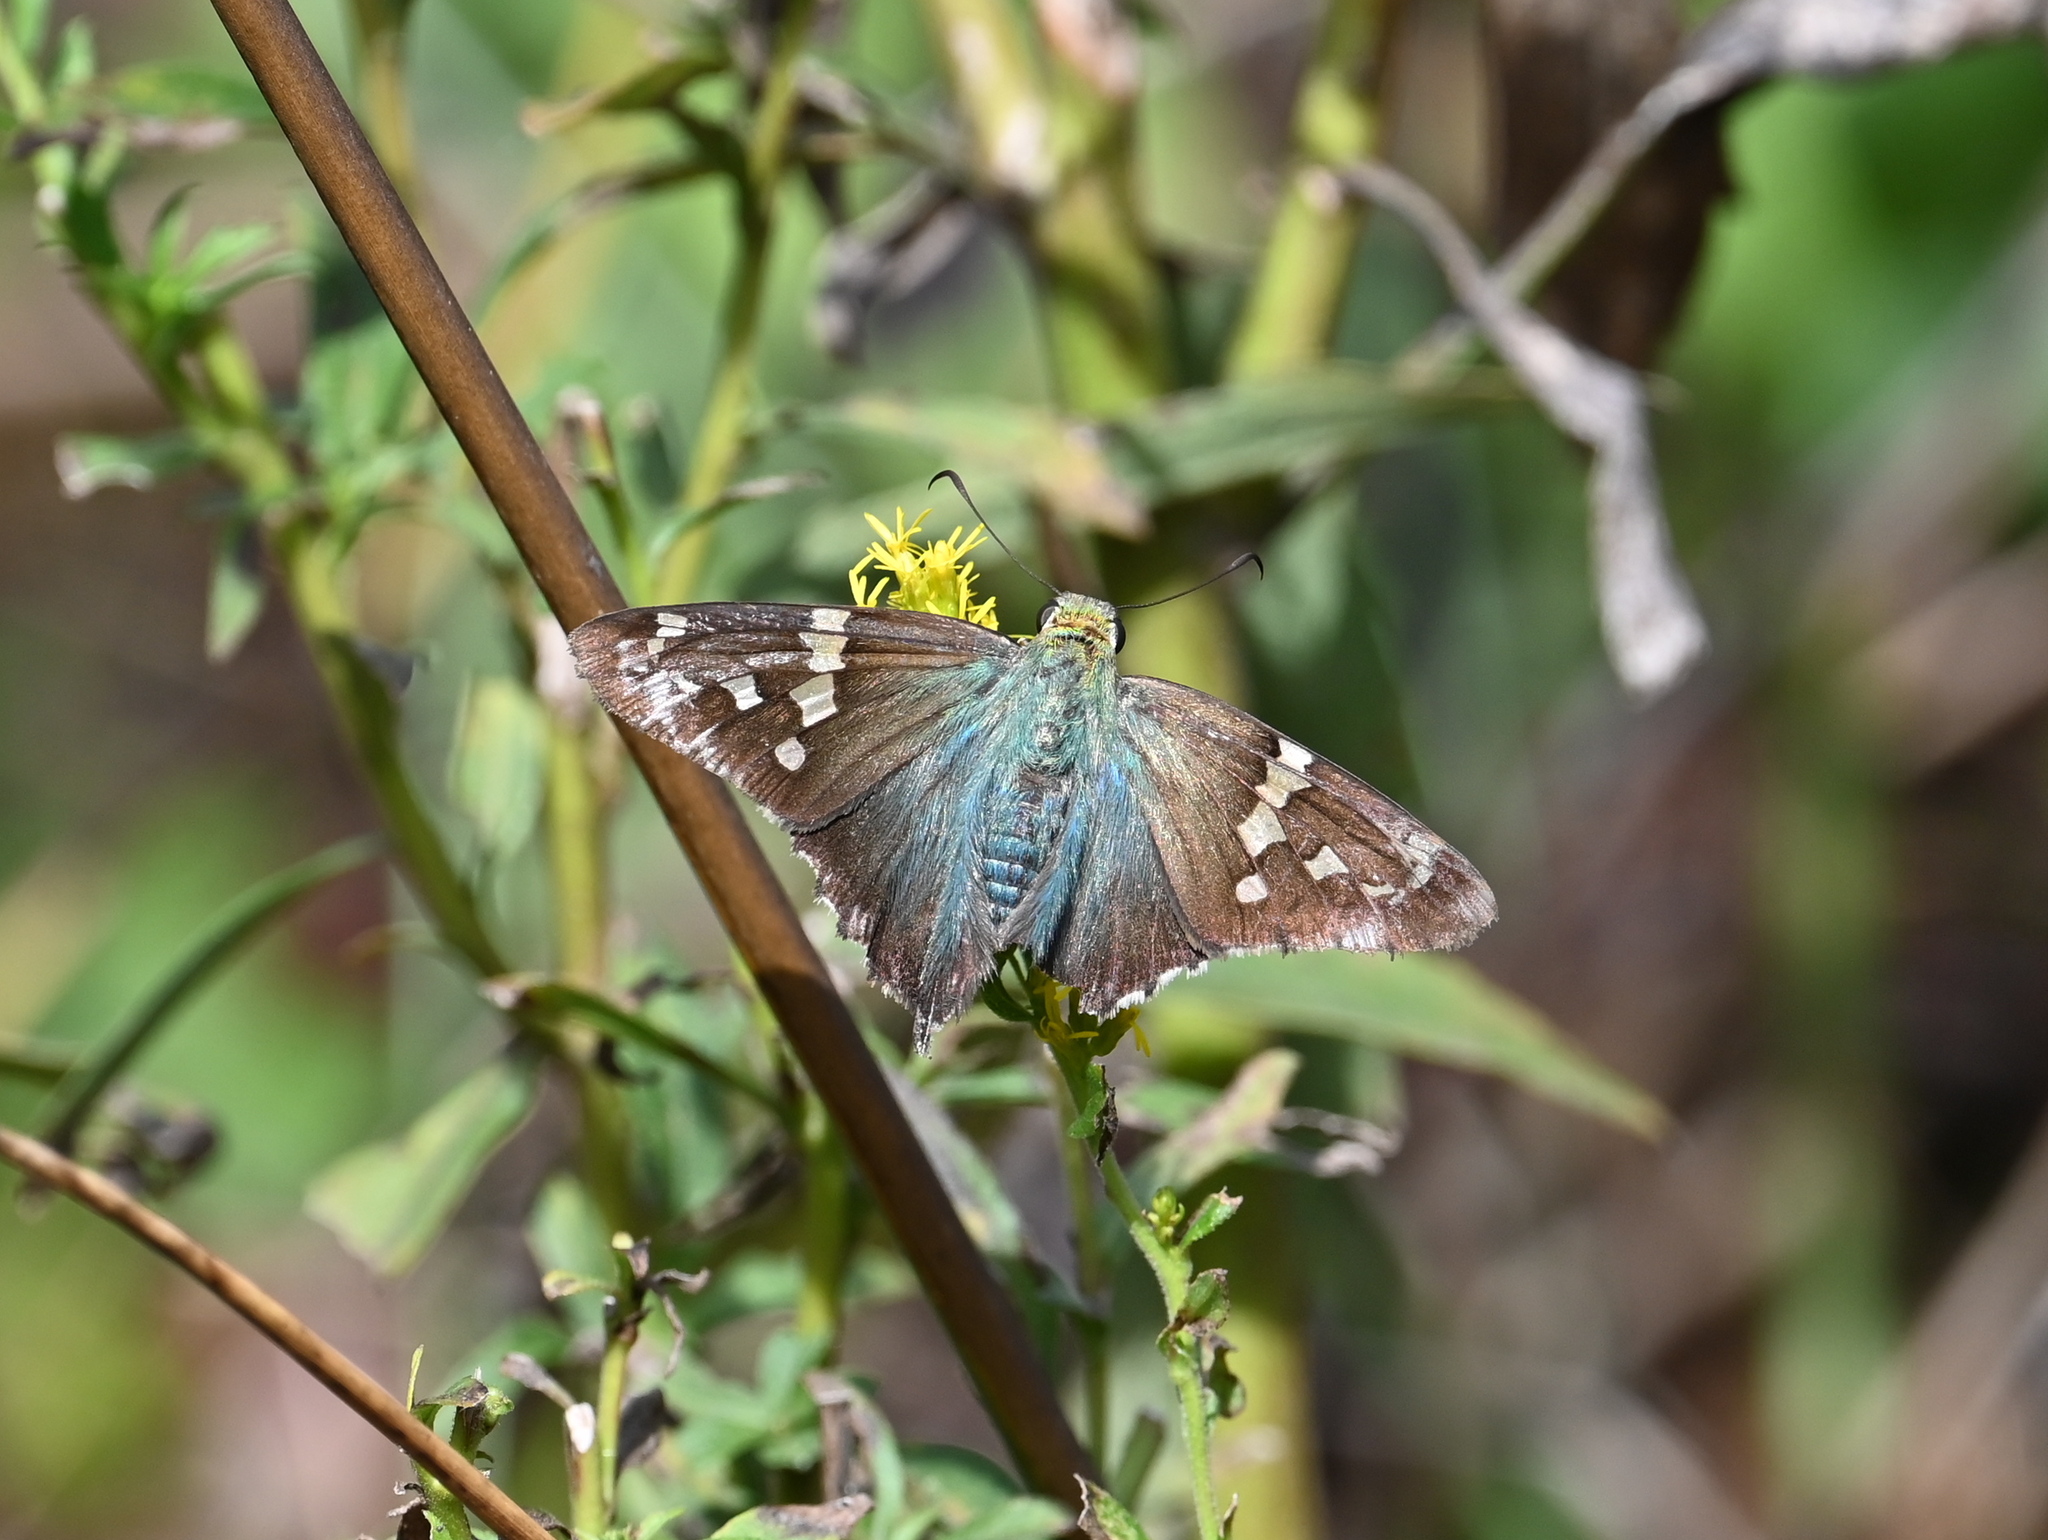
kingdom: Animalia
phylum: Arthropoda
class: Insecta
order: Lepidoptera
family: Hesperiidae
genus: Urbanus
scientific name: Urbanus proteus
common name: Long-tailed skipper
